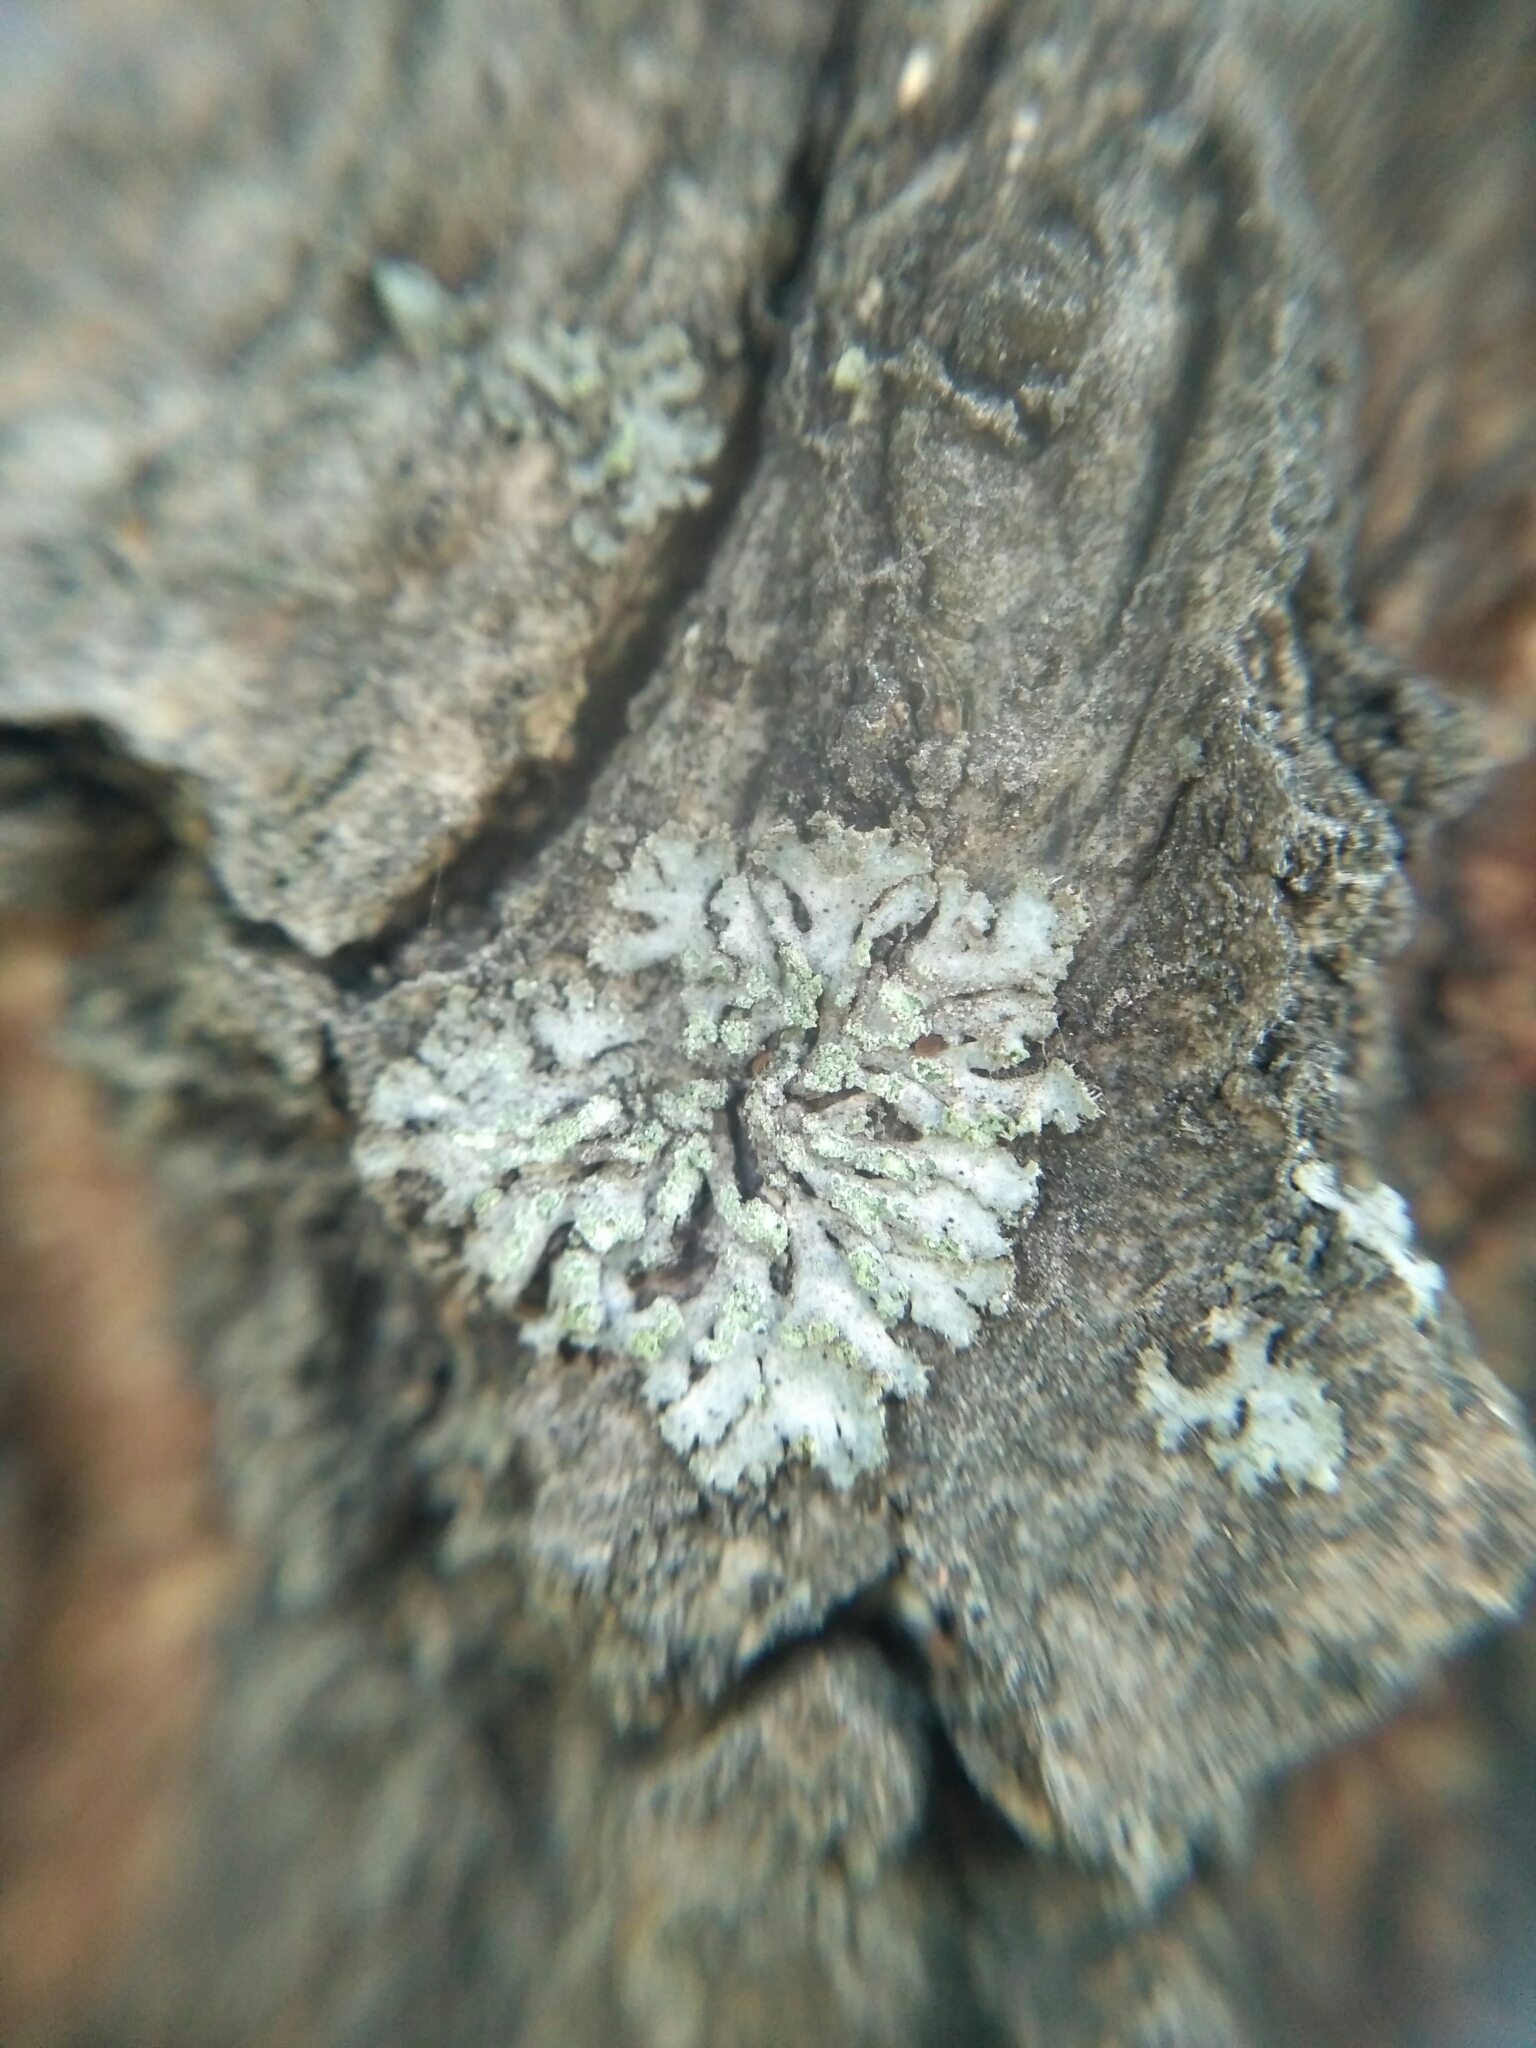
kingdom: Fungi
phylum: Ascomycota
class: Lecanoromycetes
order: Caliciales
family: Physciaceae
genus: Phaeophyscia
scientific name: Phaeophyscia orbicularis
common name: Mealy shadow lichen
